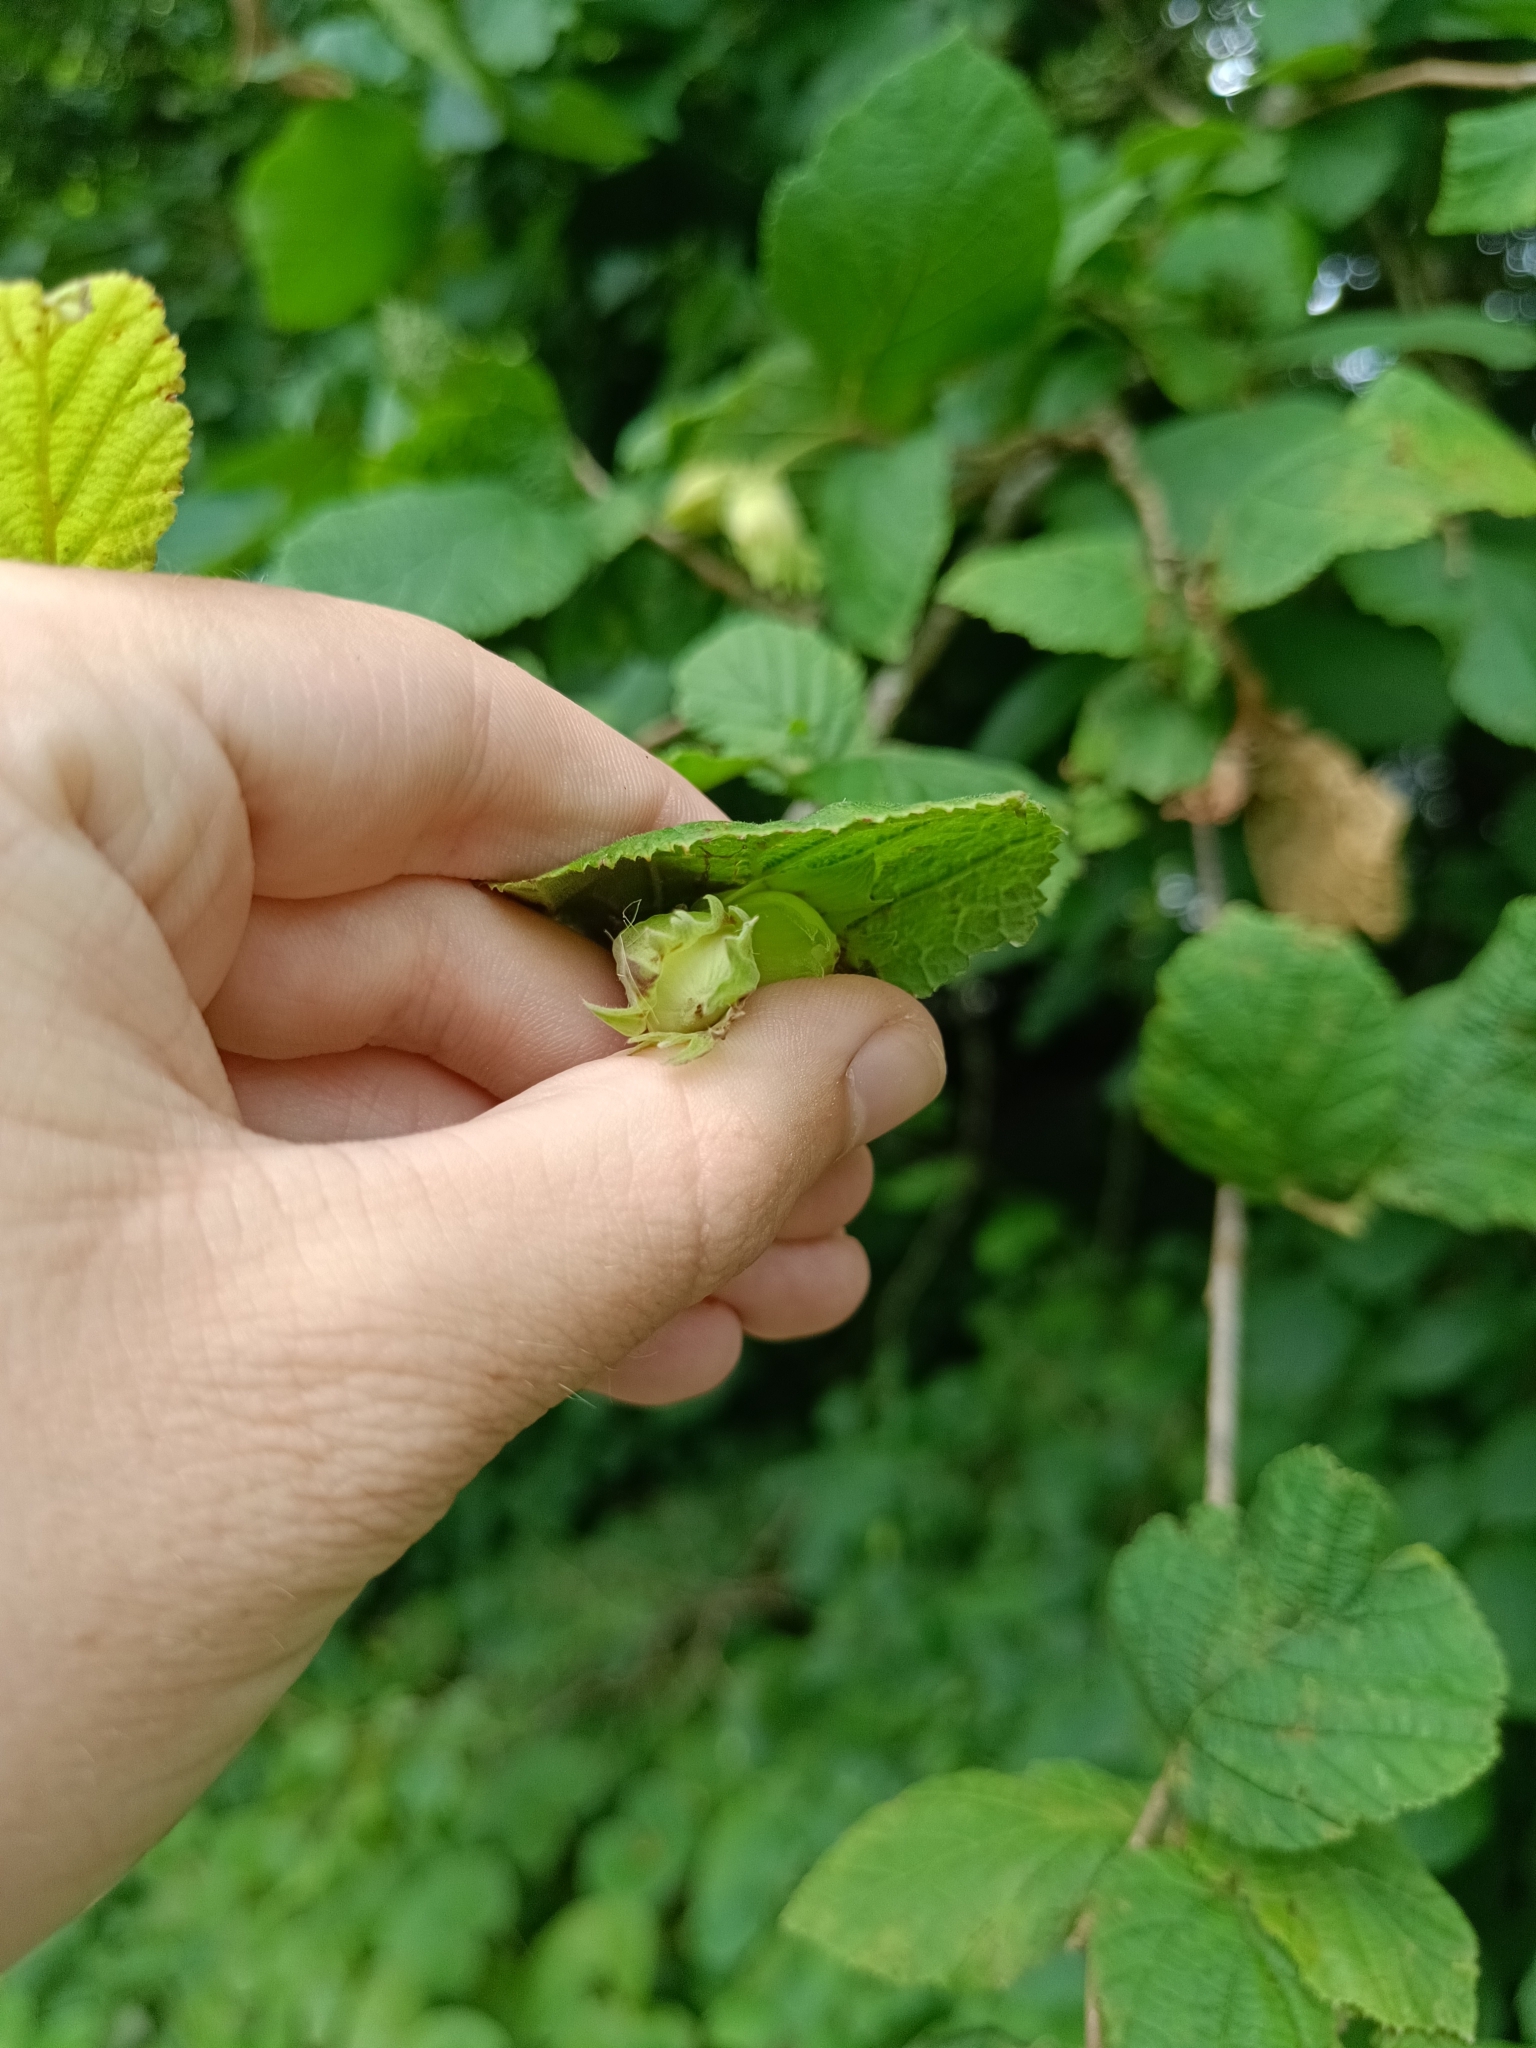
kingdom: Plantae
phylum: Tracheophyta
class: Magnoliopsida
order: Fagales
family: Betulaceae
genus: Corylus
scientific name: Corylus avellana
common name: European hazel
